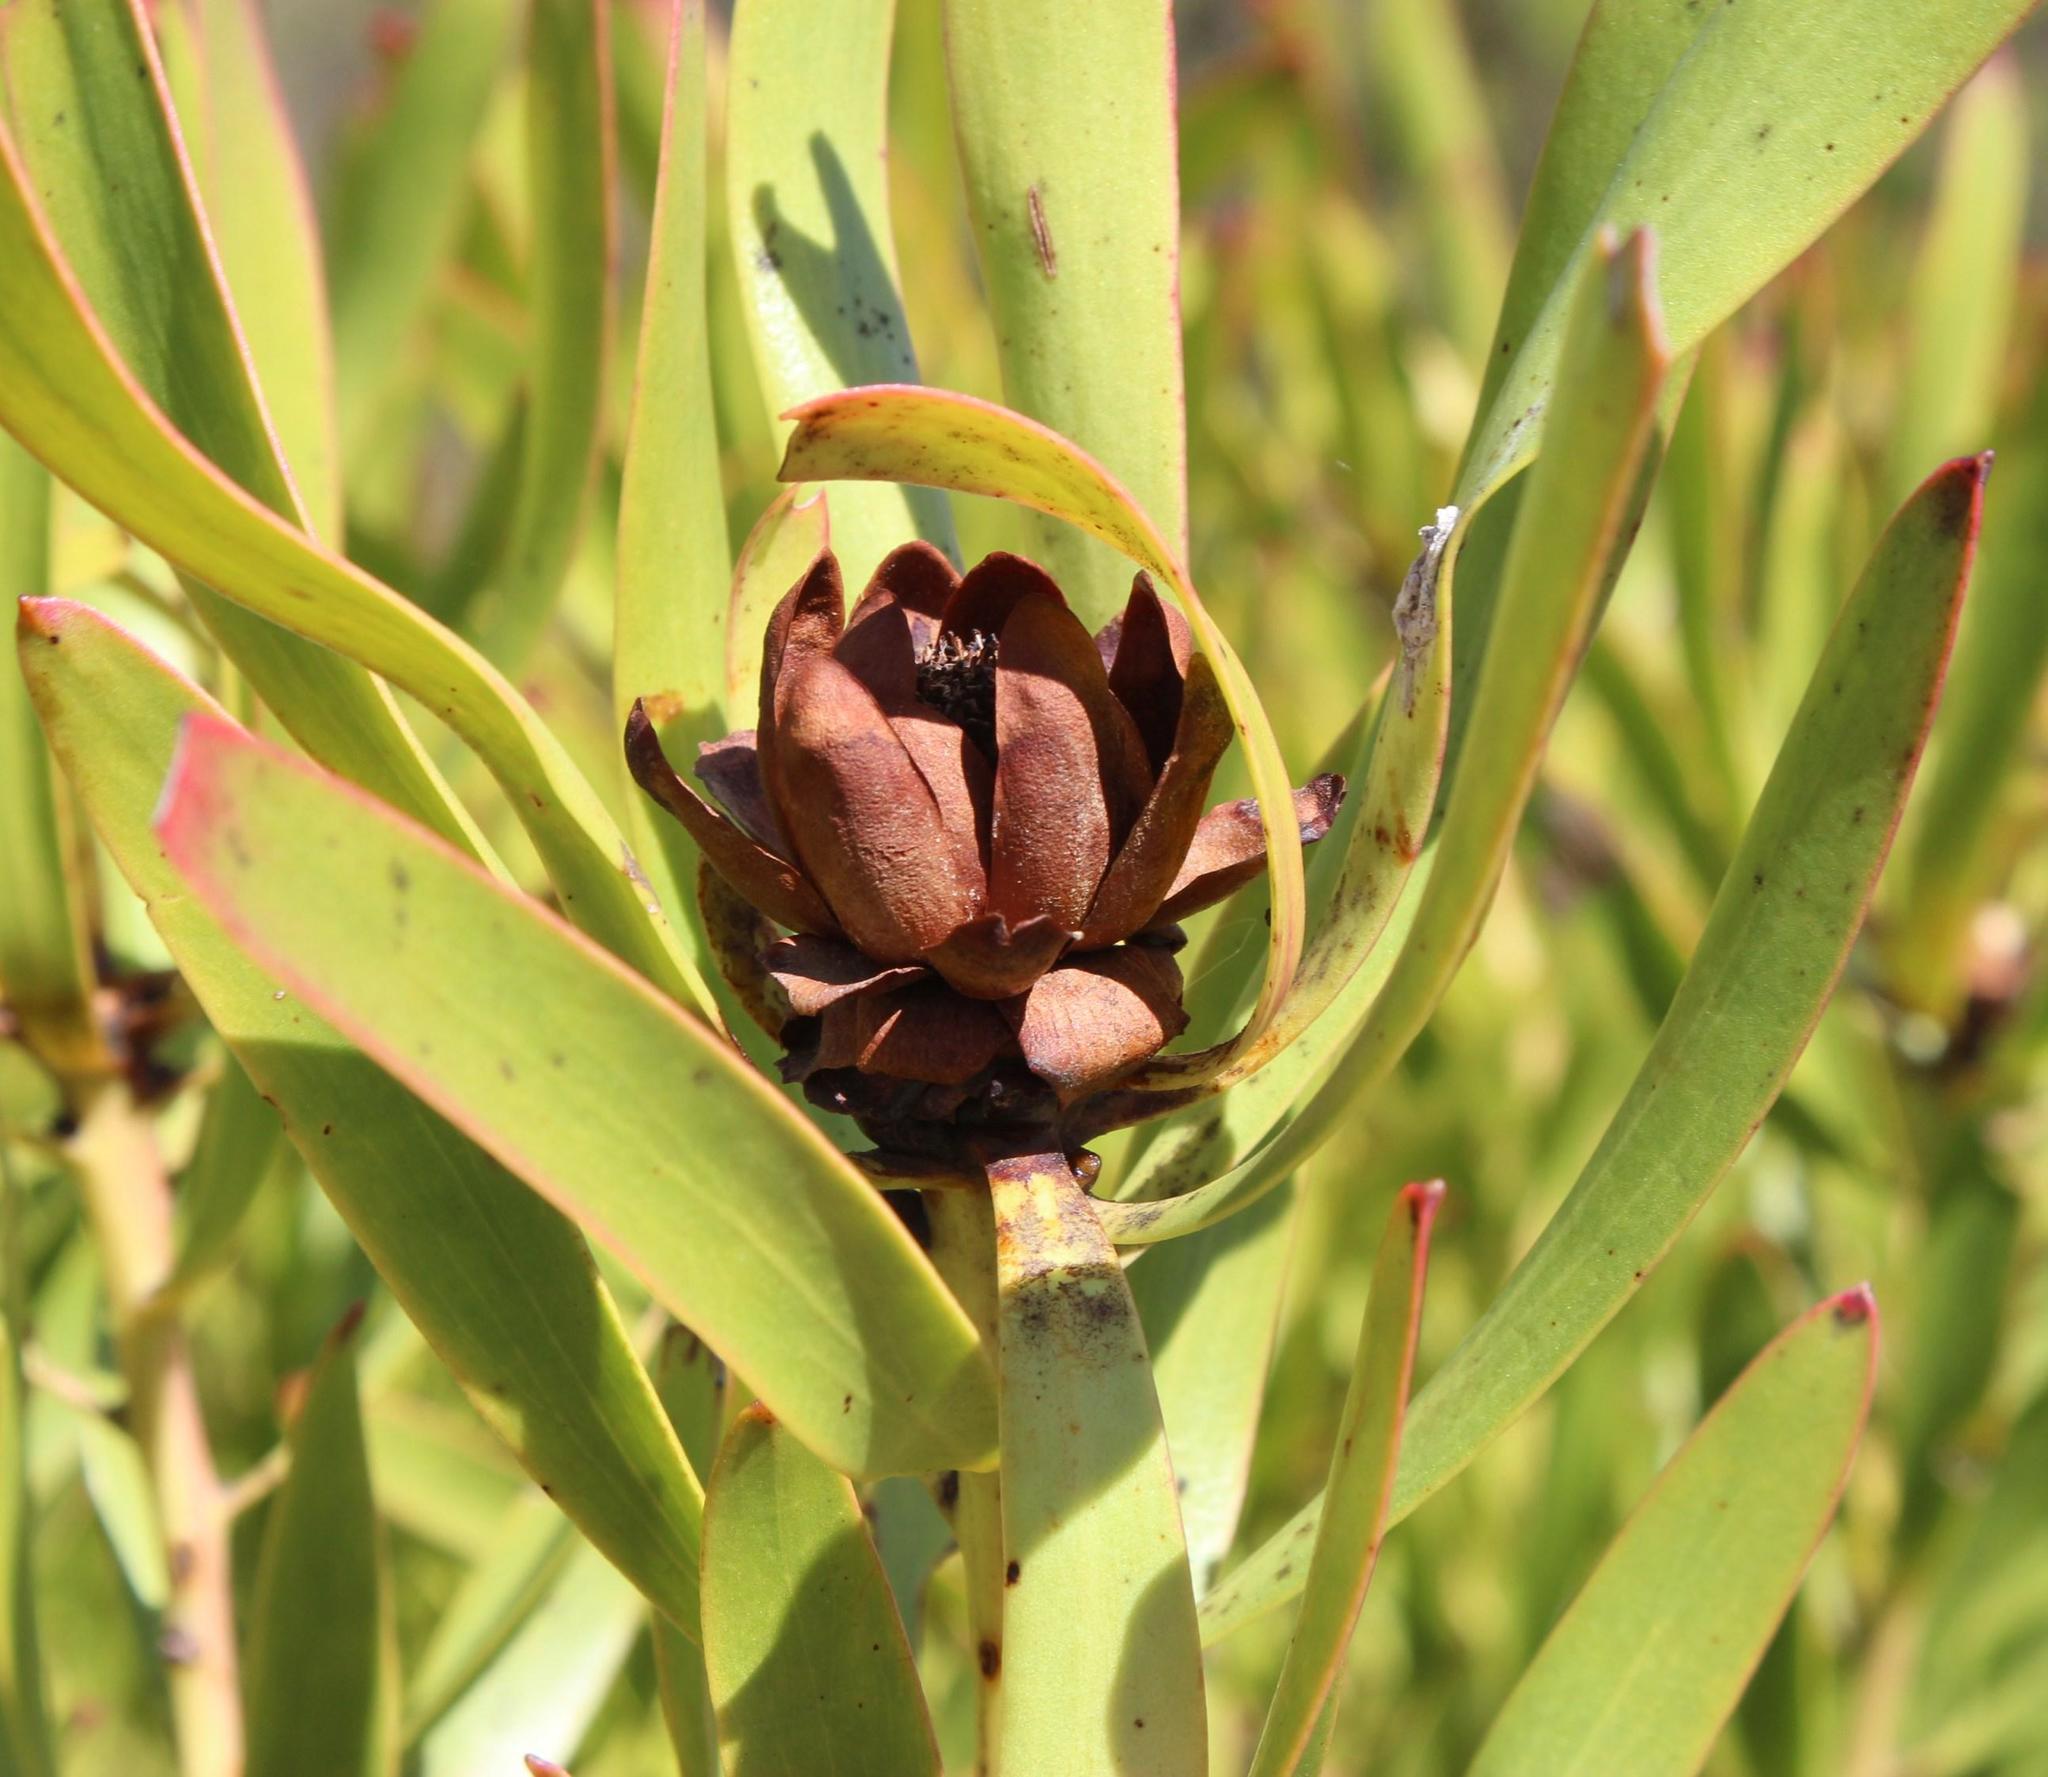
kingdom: Plantae
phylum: Tracheophyta
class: Magnoliopsida
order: Proteales
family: Proteaceae
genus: Leucadendron
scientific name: Leucadendron microcephalum
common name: Oilbract conebush
